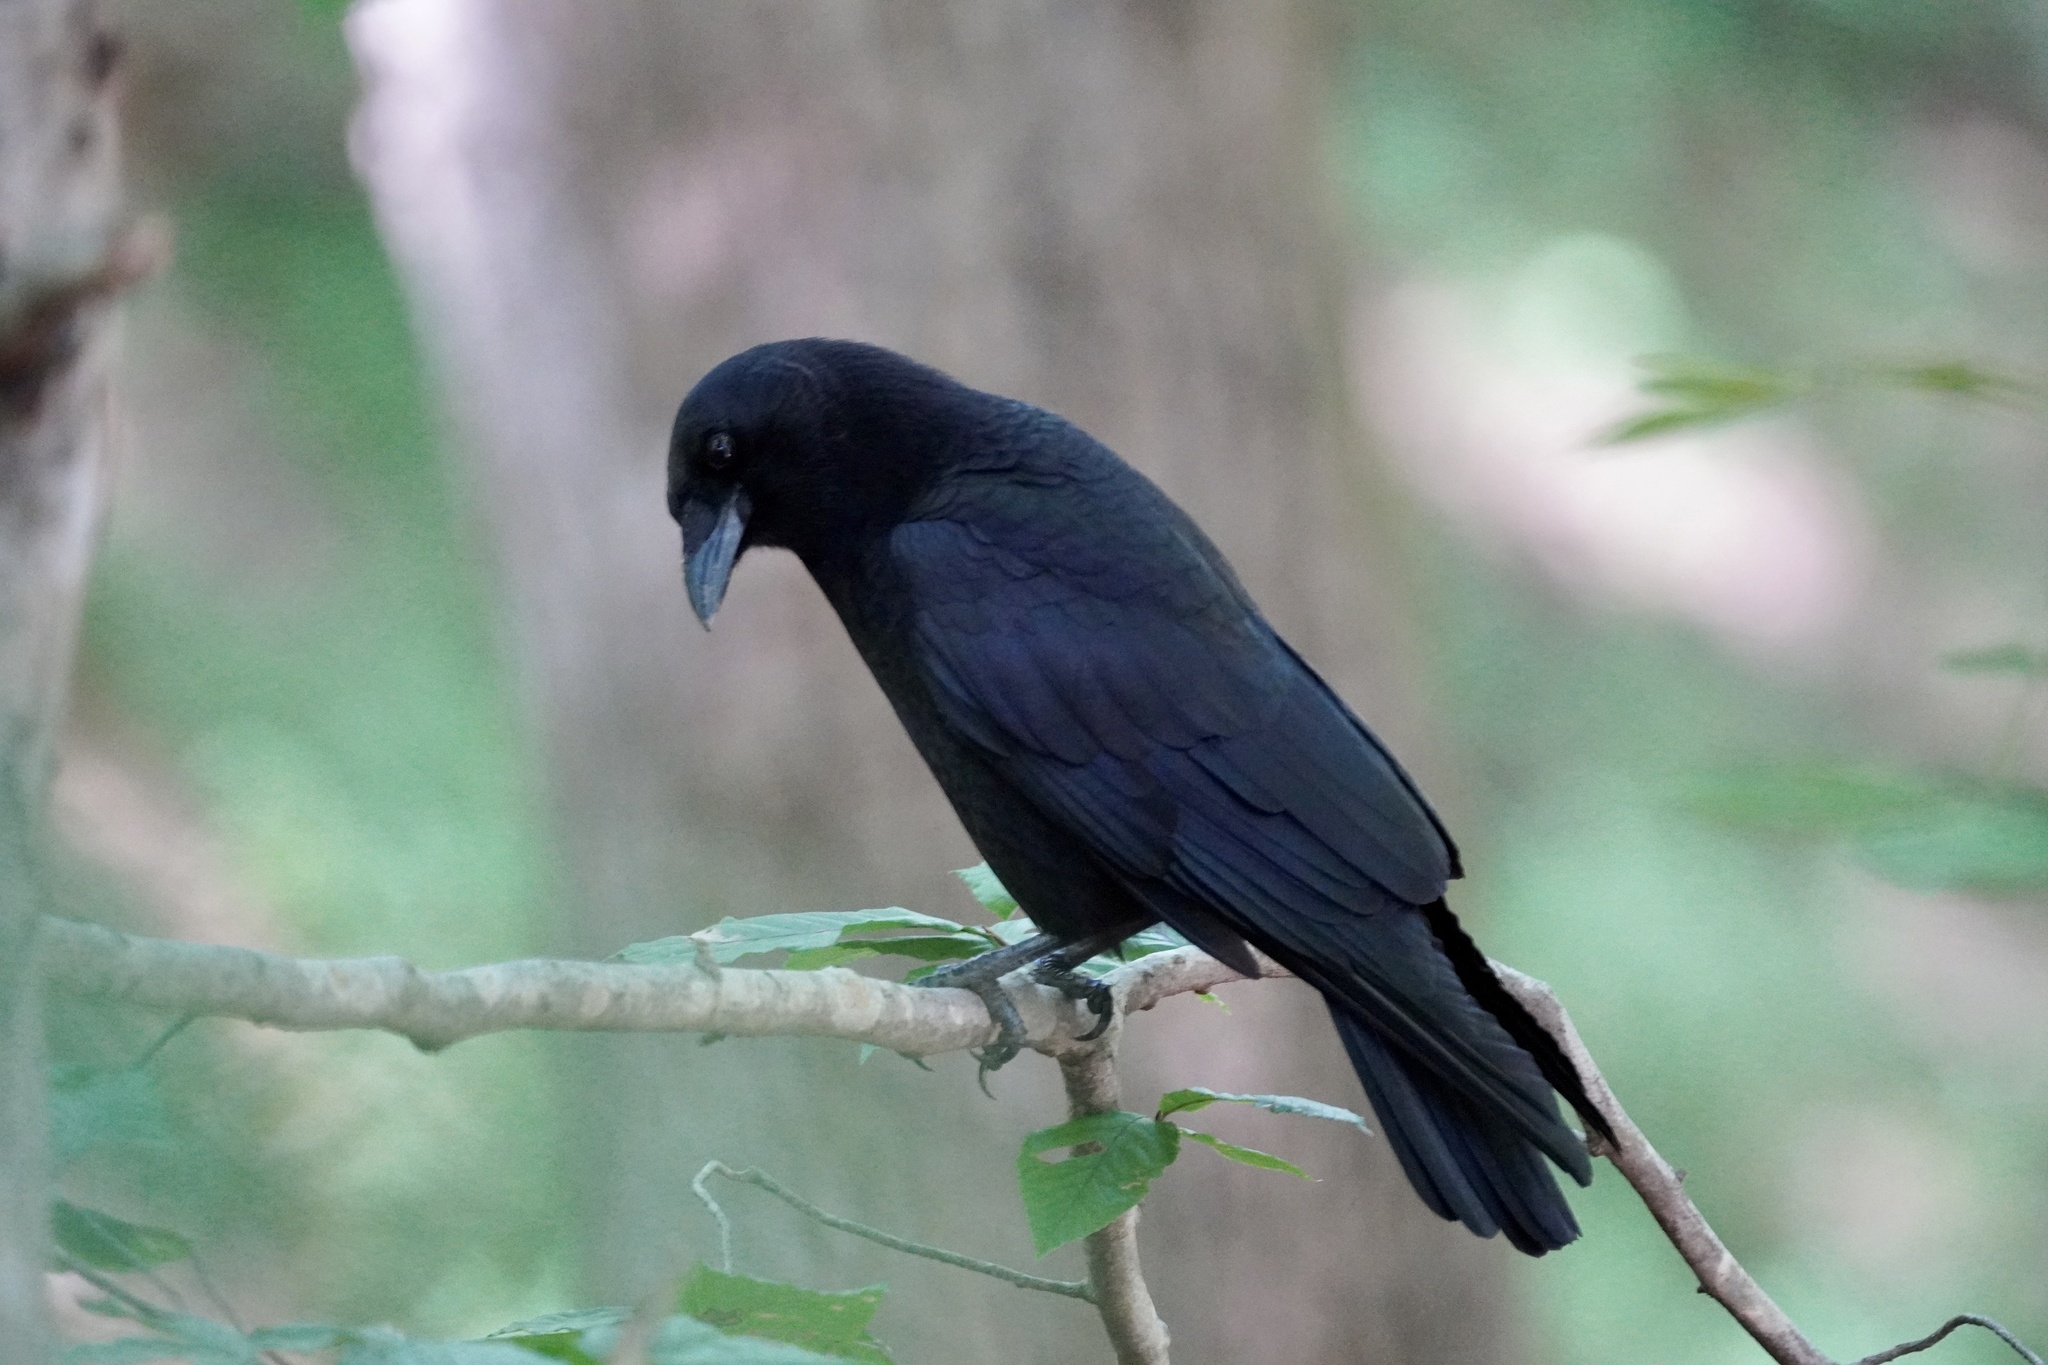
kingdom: Animalia
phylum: Chordata
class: Aves
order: Passeriformes
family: Corvidae
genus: Corvus
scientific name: Corvus brachyrhynchos
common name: American crow
